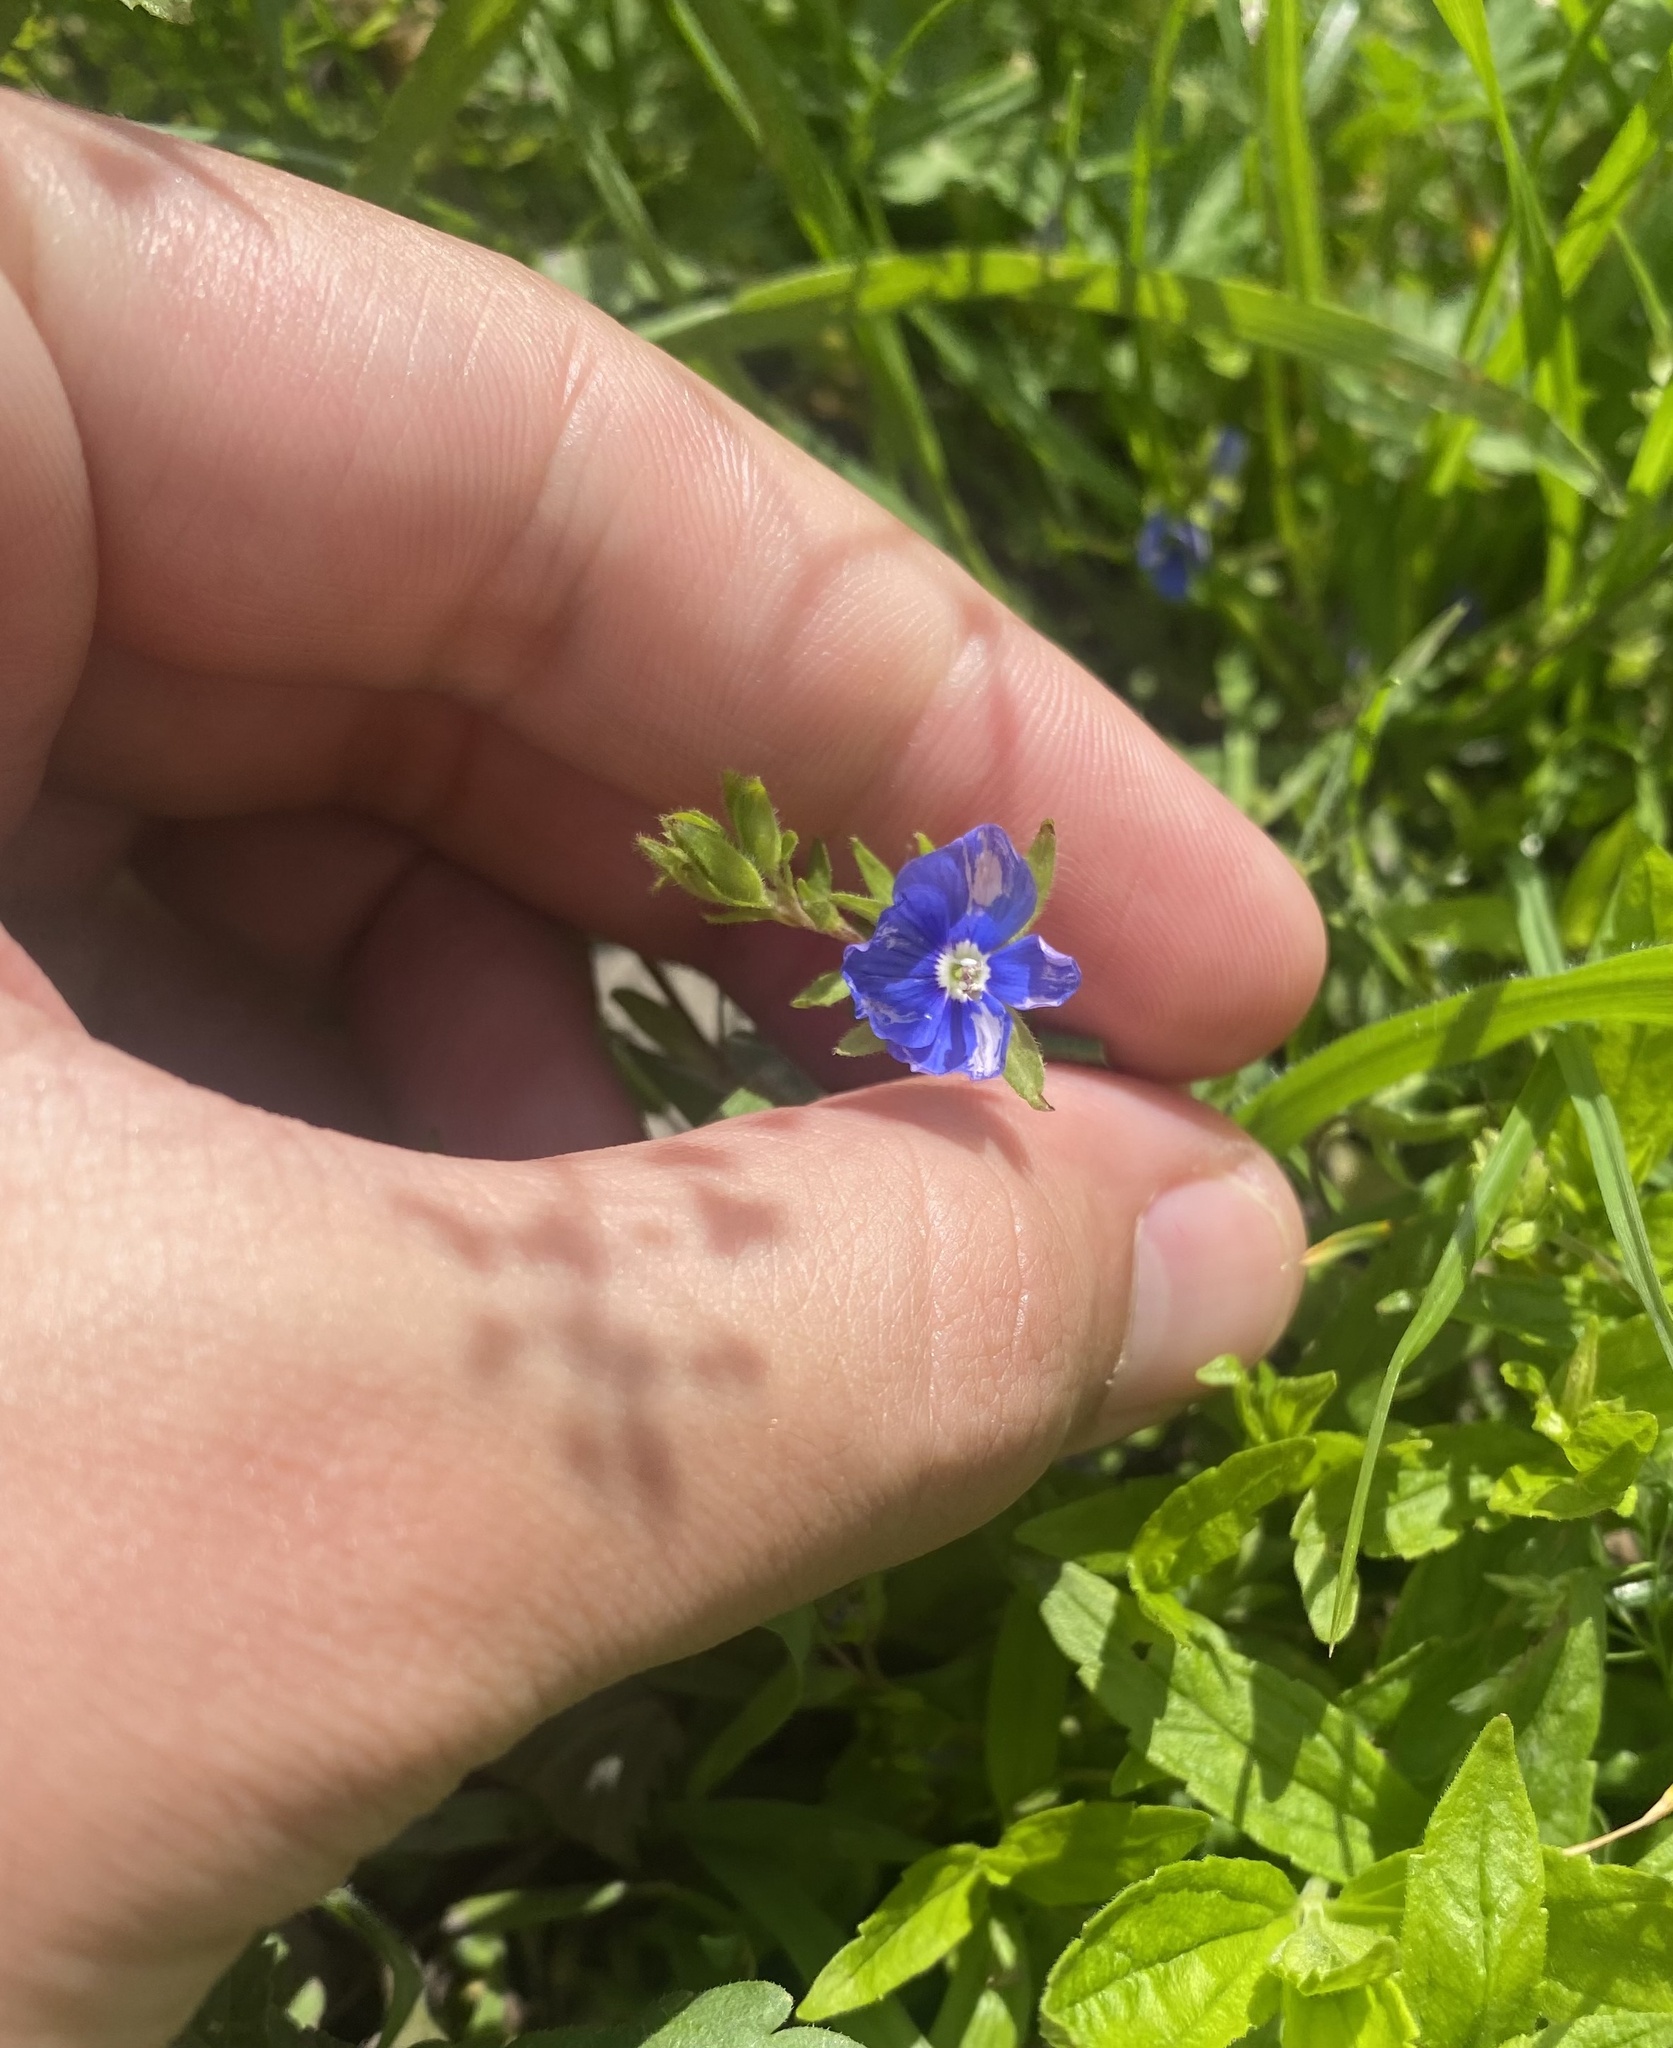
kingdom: Plantae
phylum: Tracheophyta
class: Magnoliopsida
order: Lamiales
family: Plantaginaceae
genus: Veronica
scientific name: Veronica
